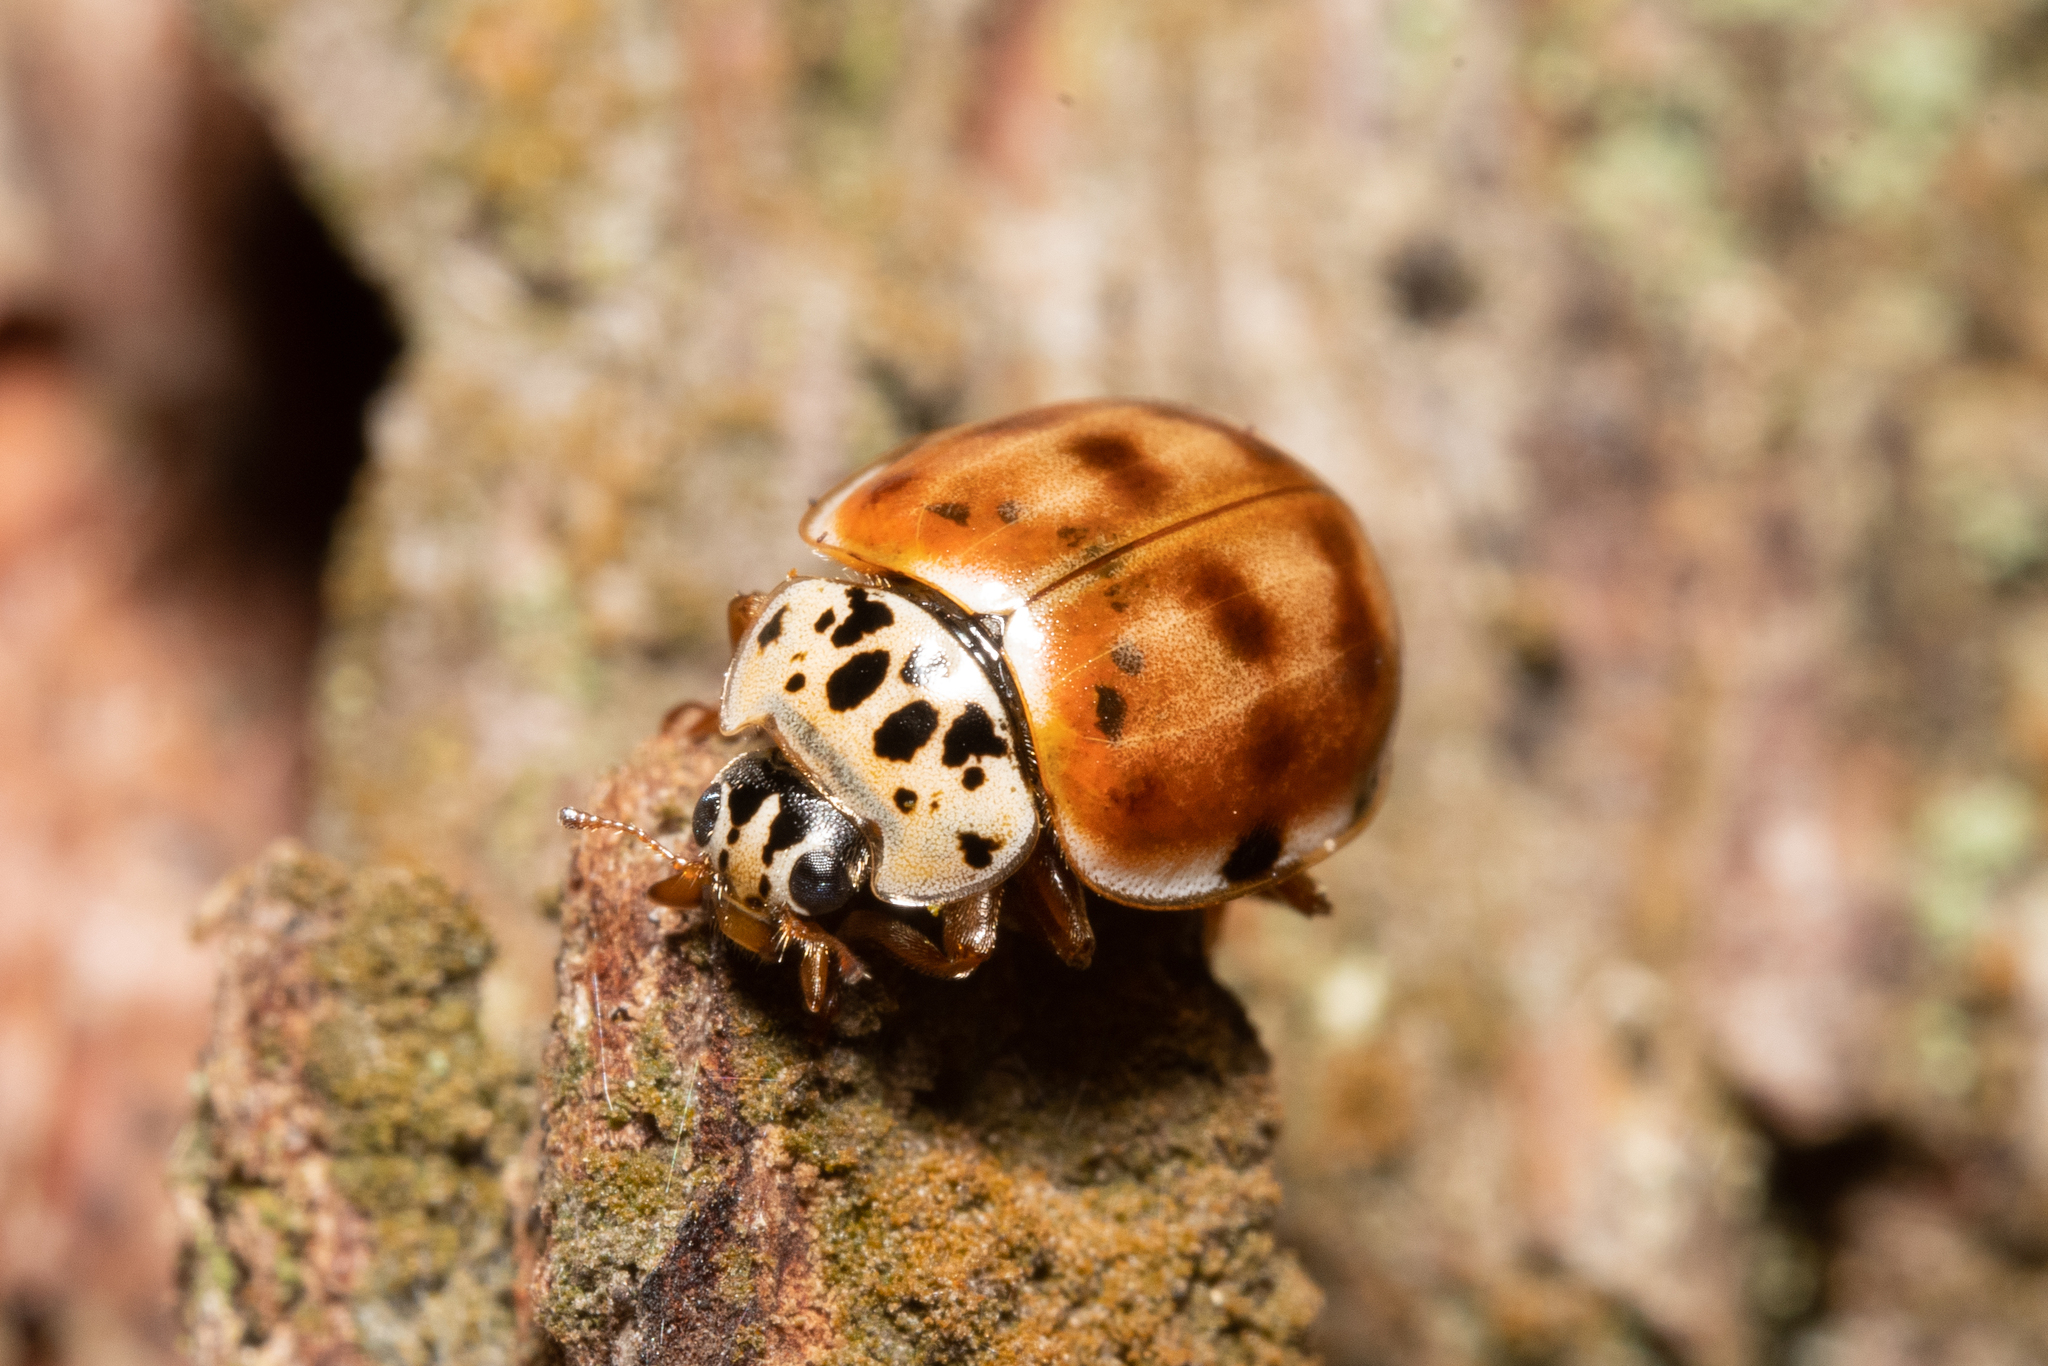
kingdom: Animalia
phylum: Arthropoda
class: Insecta
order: Coleoptera
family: Coccinellidae
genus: Harmonia
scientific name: Harmonia quadripunctata
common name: Cream-streaked ladybird
